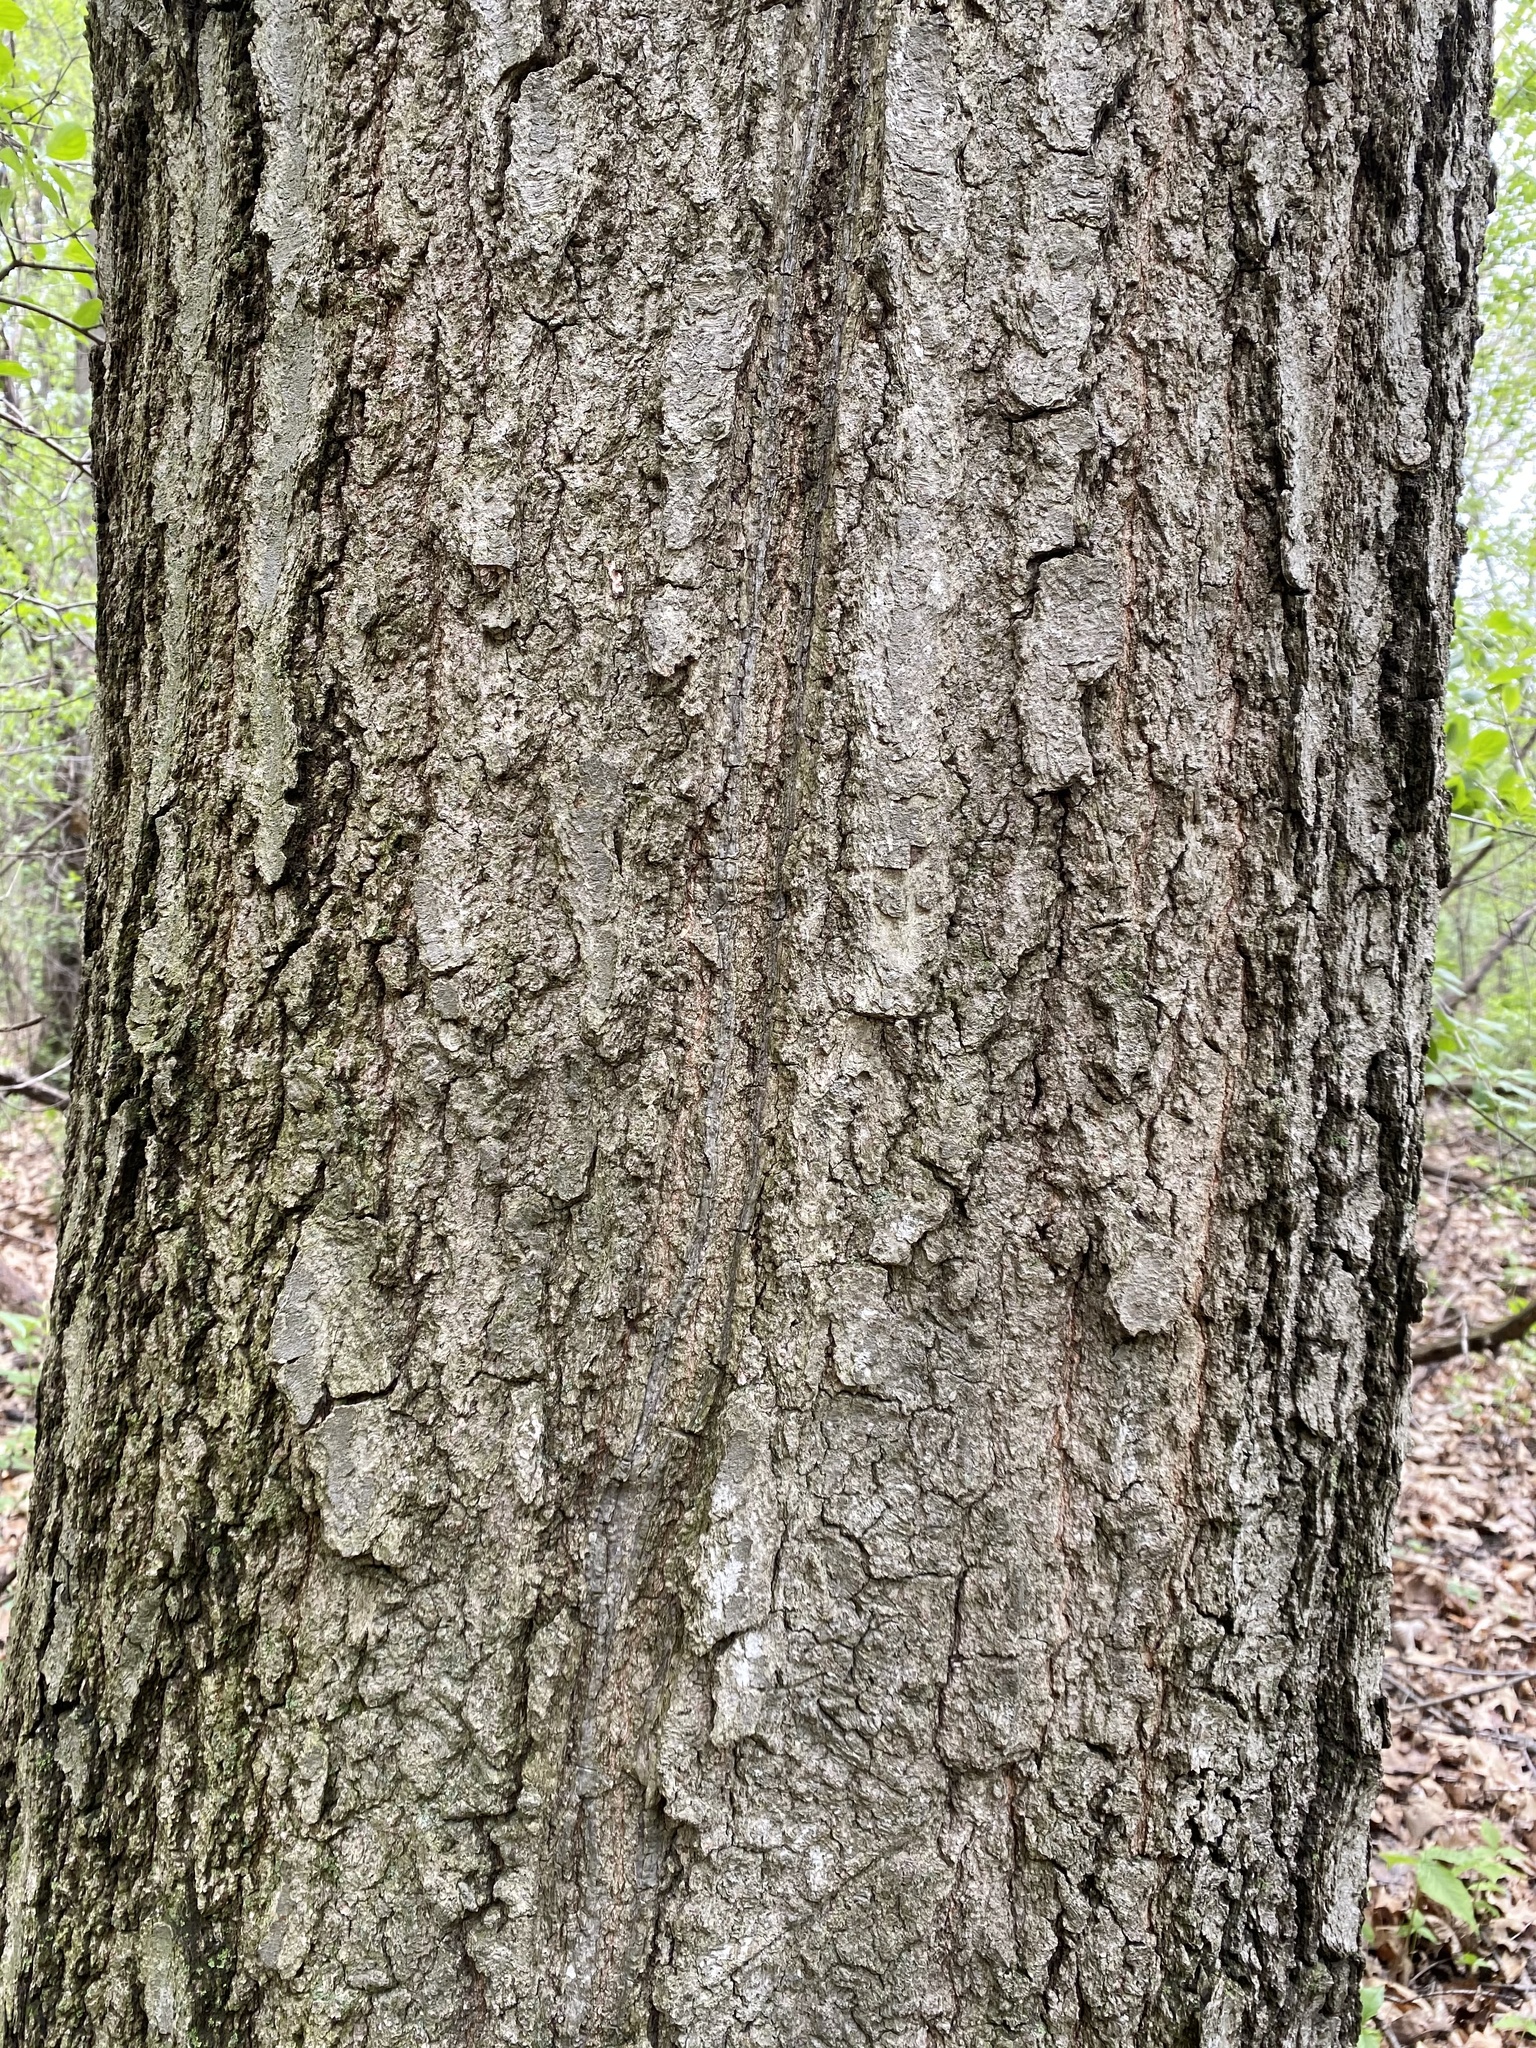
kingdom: Plantae
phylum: Tracheophyta
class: Magnoliopsida
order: Fagales
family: Fagaceae
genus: Quercus
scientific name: Quercus rubra
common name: Red oak
